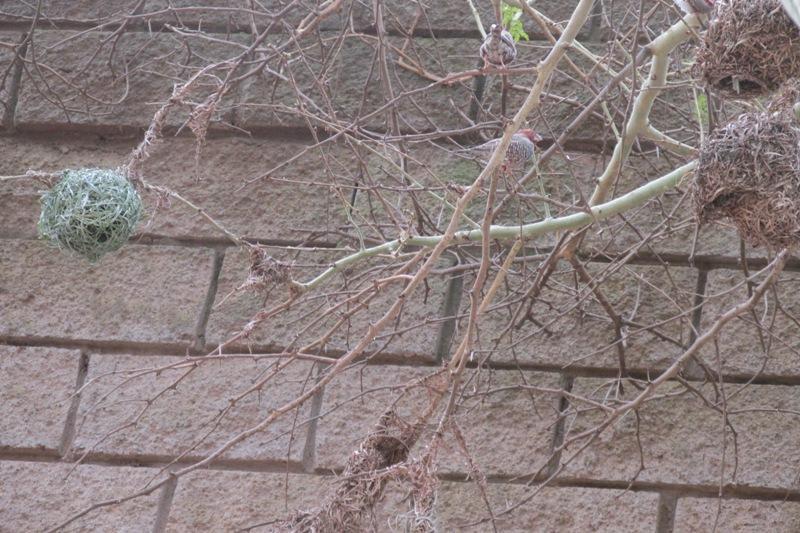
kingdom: Animalia
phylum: Chordata
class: Aves
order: Passeriformes
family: Estrildidae
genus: Amadina
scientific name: Amadina erythrocephala
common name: Red-headed finch
